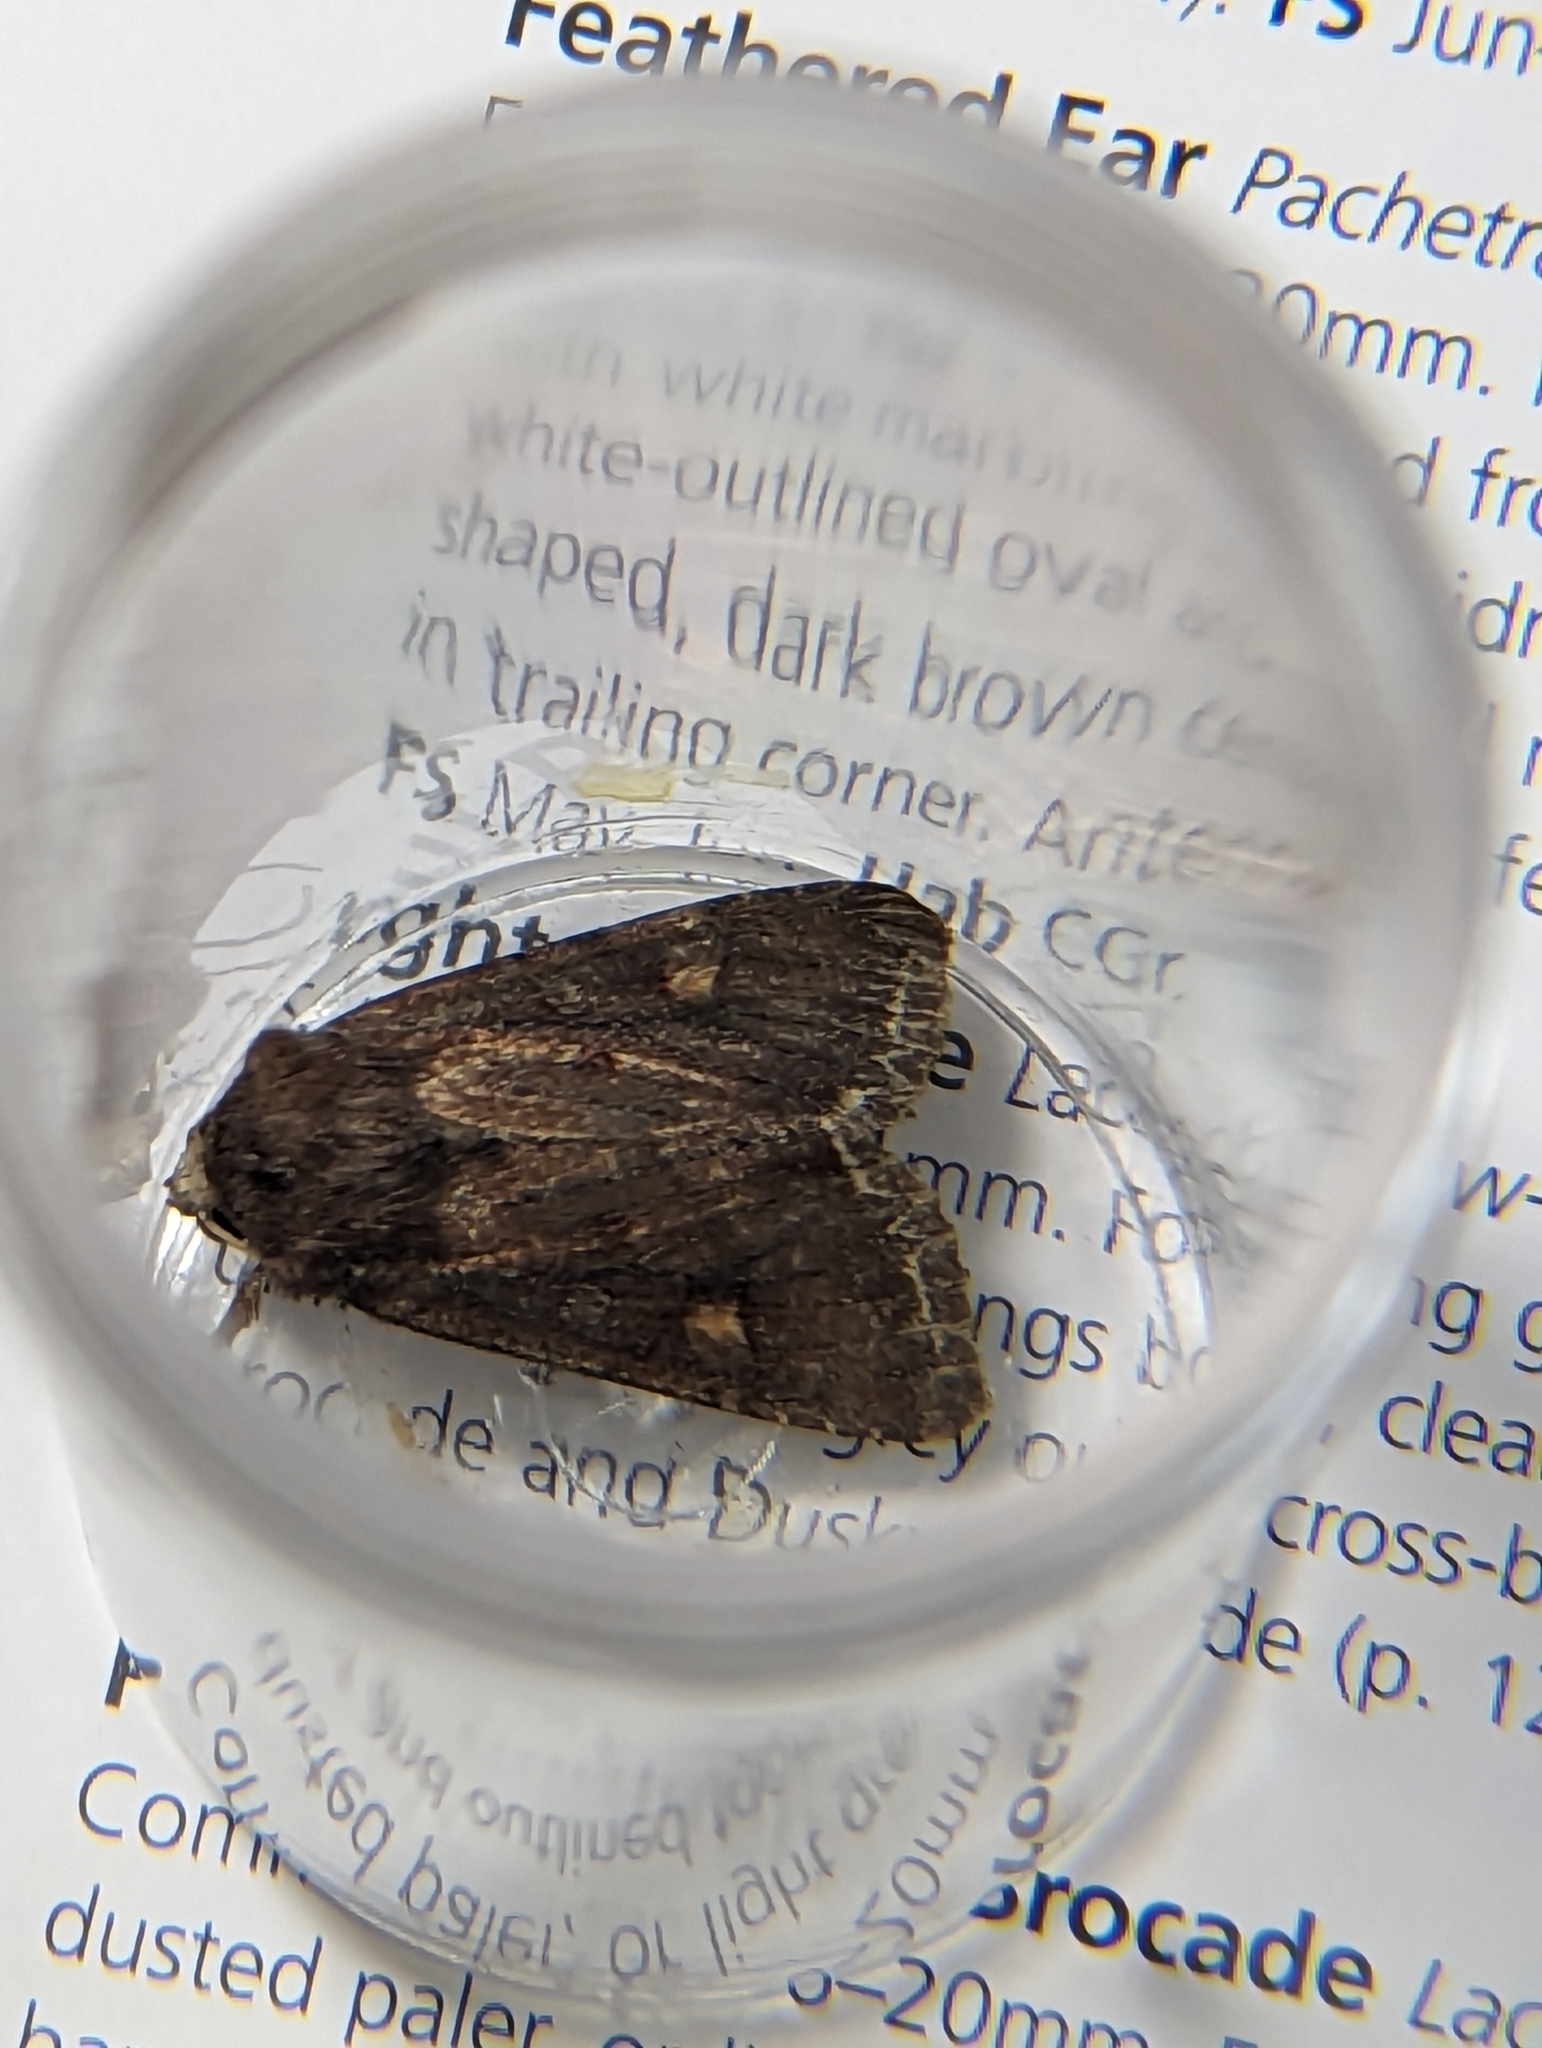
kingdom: Animalia
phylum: Arthropoda
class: Insecta
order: Lepidoptera
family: Noctuidae
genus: Lacanobia
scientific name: Lacanobia oleracea
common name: Bright-line brown-eye
